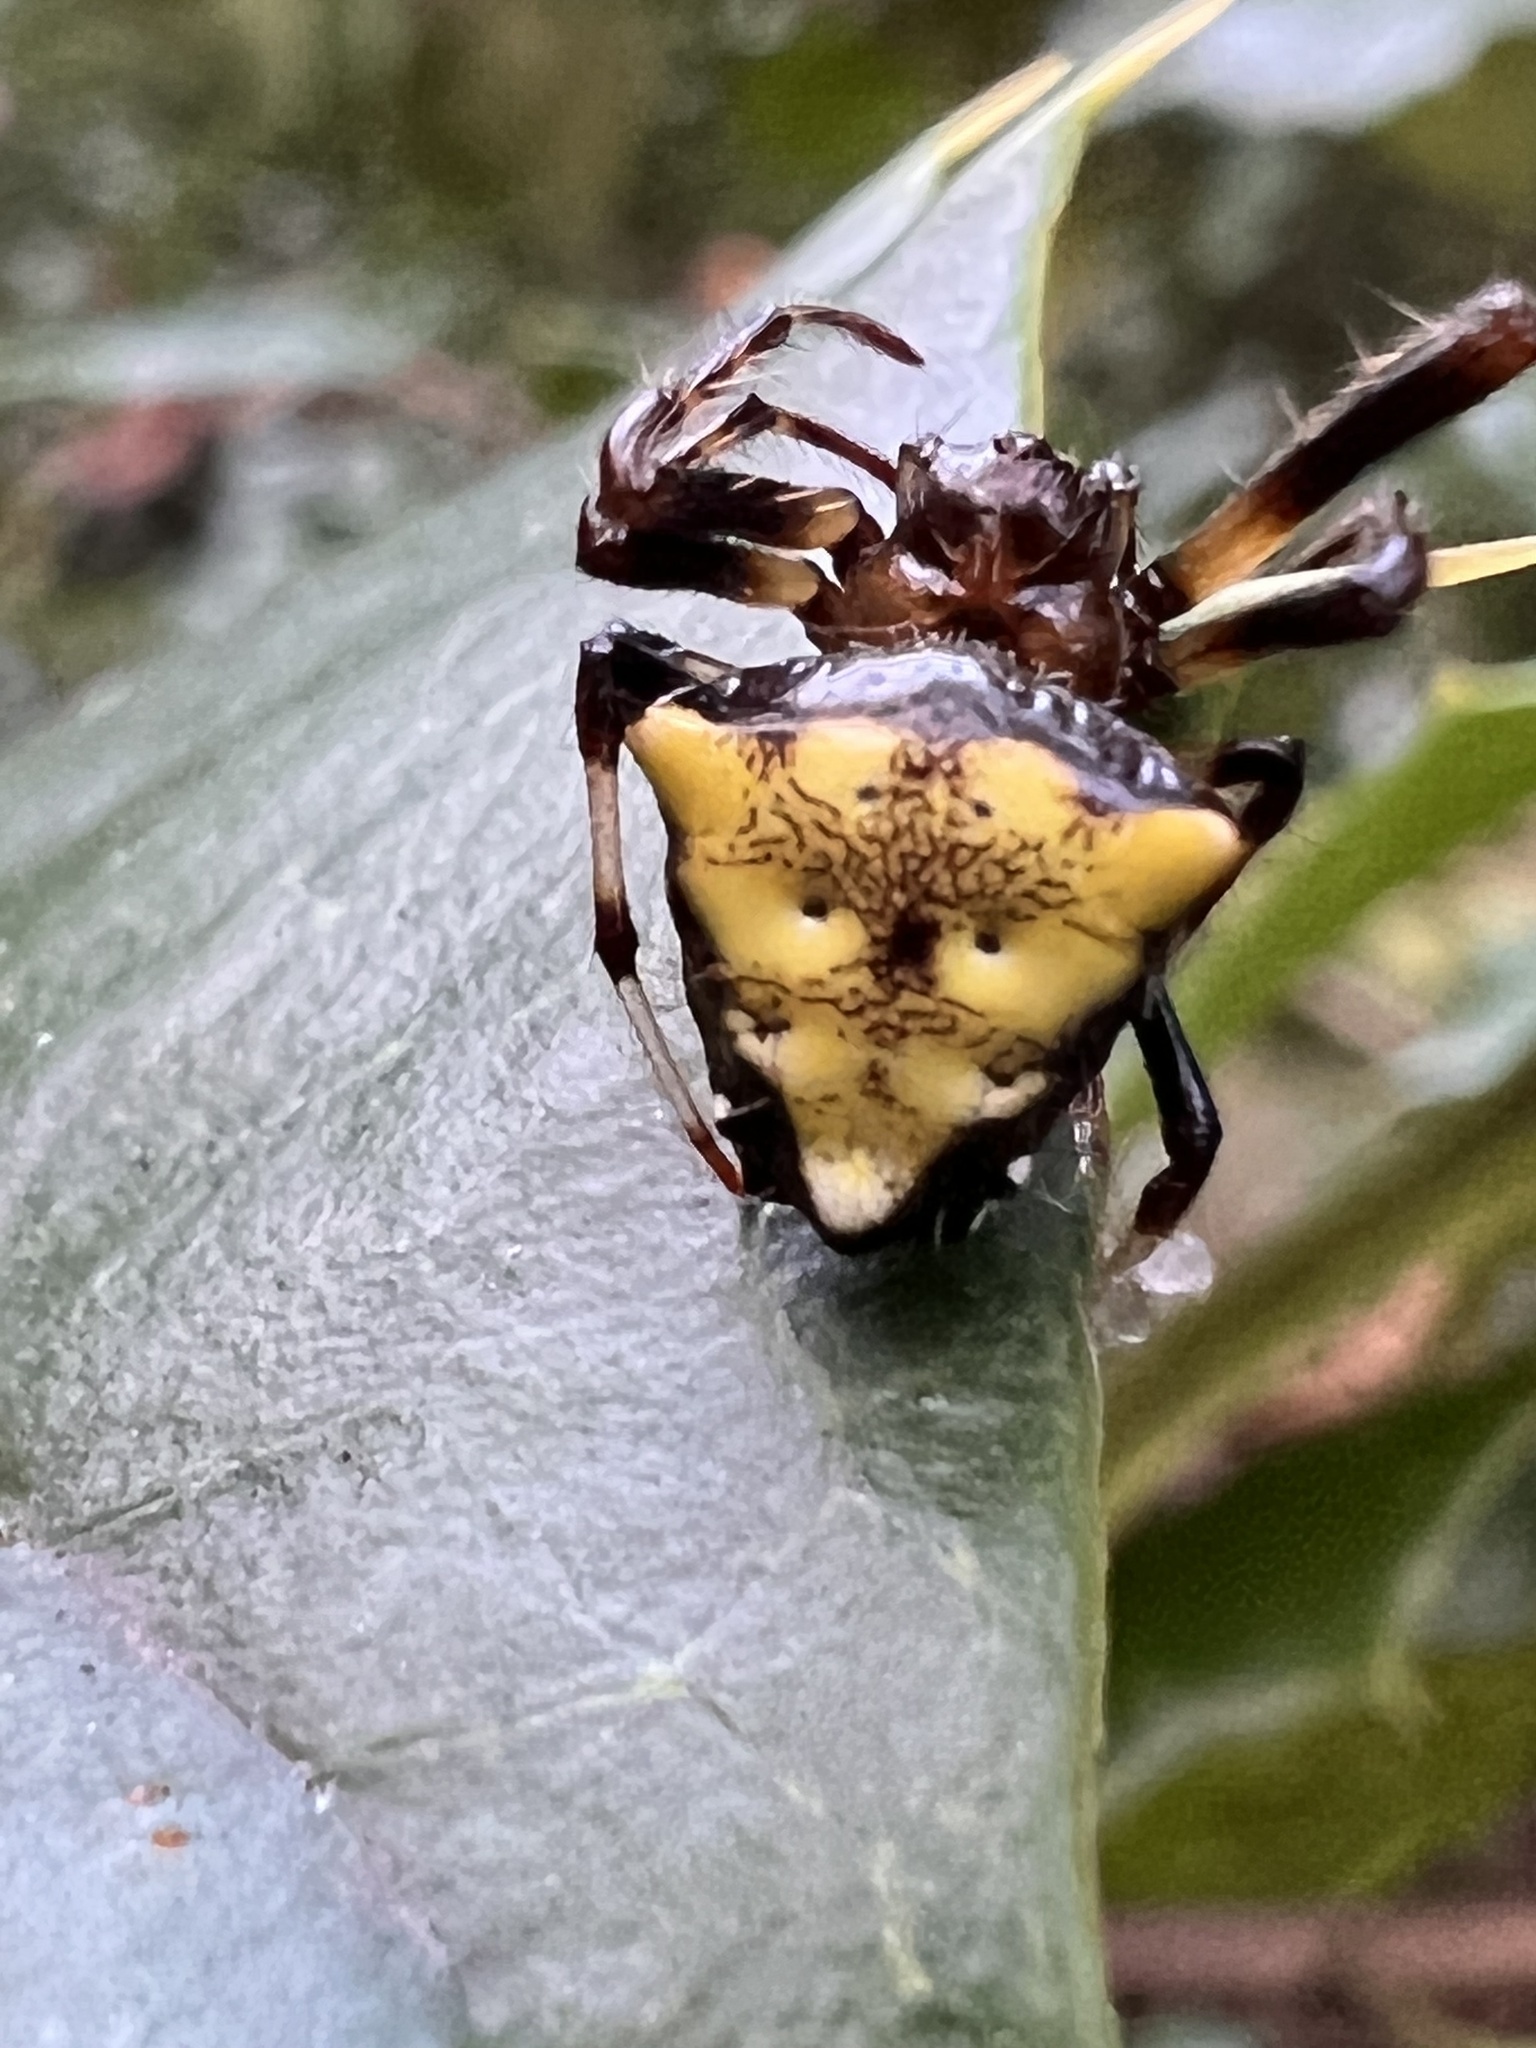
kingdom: Animalia
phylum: Arthropoda
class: Arachnida
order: Araneae
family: Araneidae
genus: Verrucosa
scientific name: Verrucosa arenata
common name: Orb weavers
